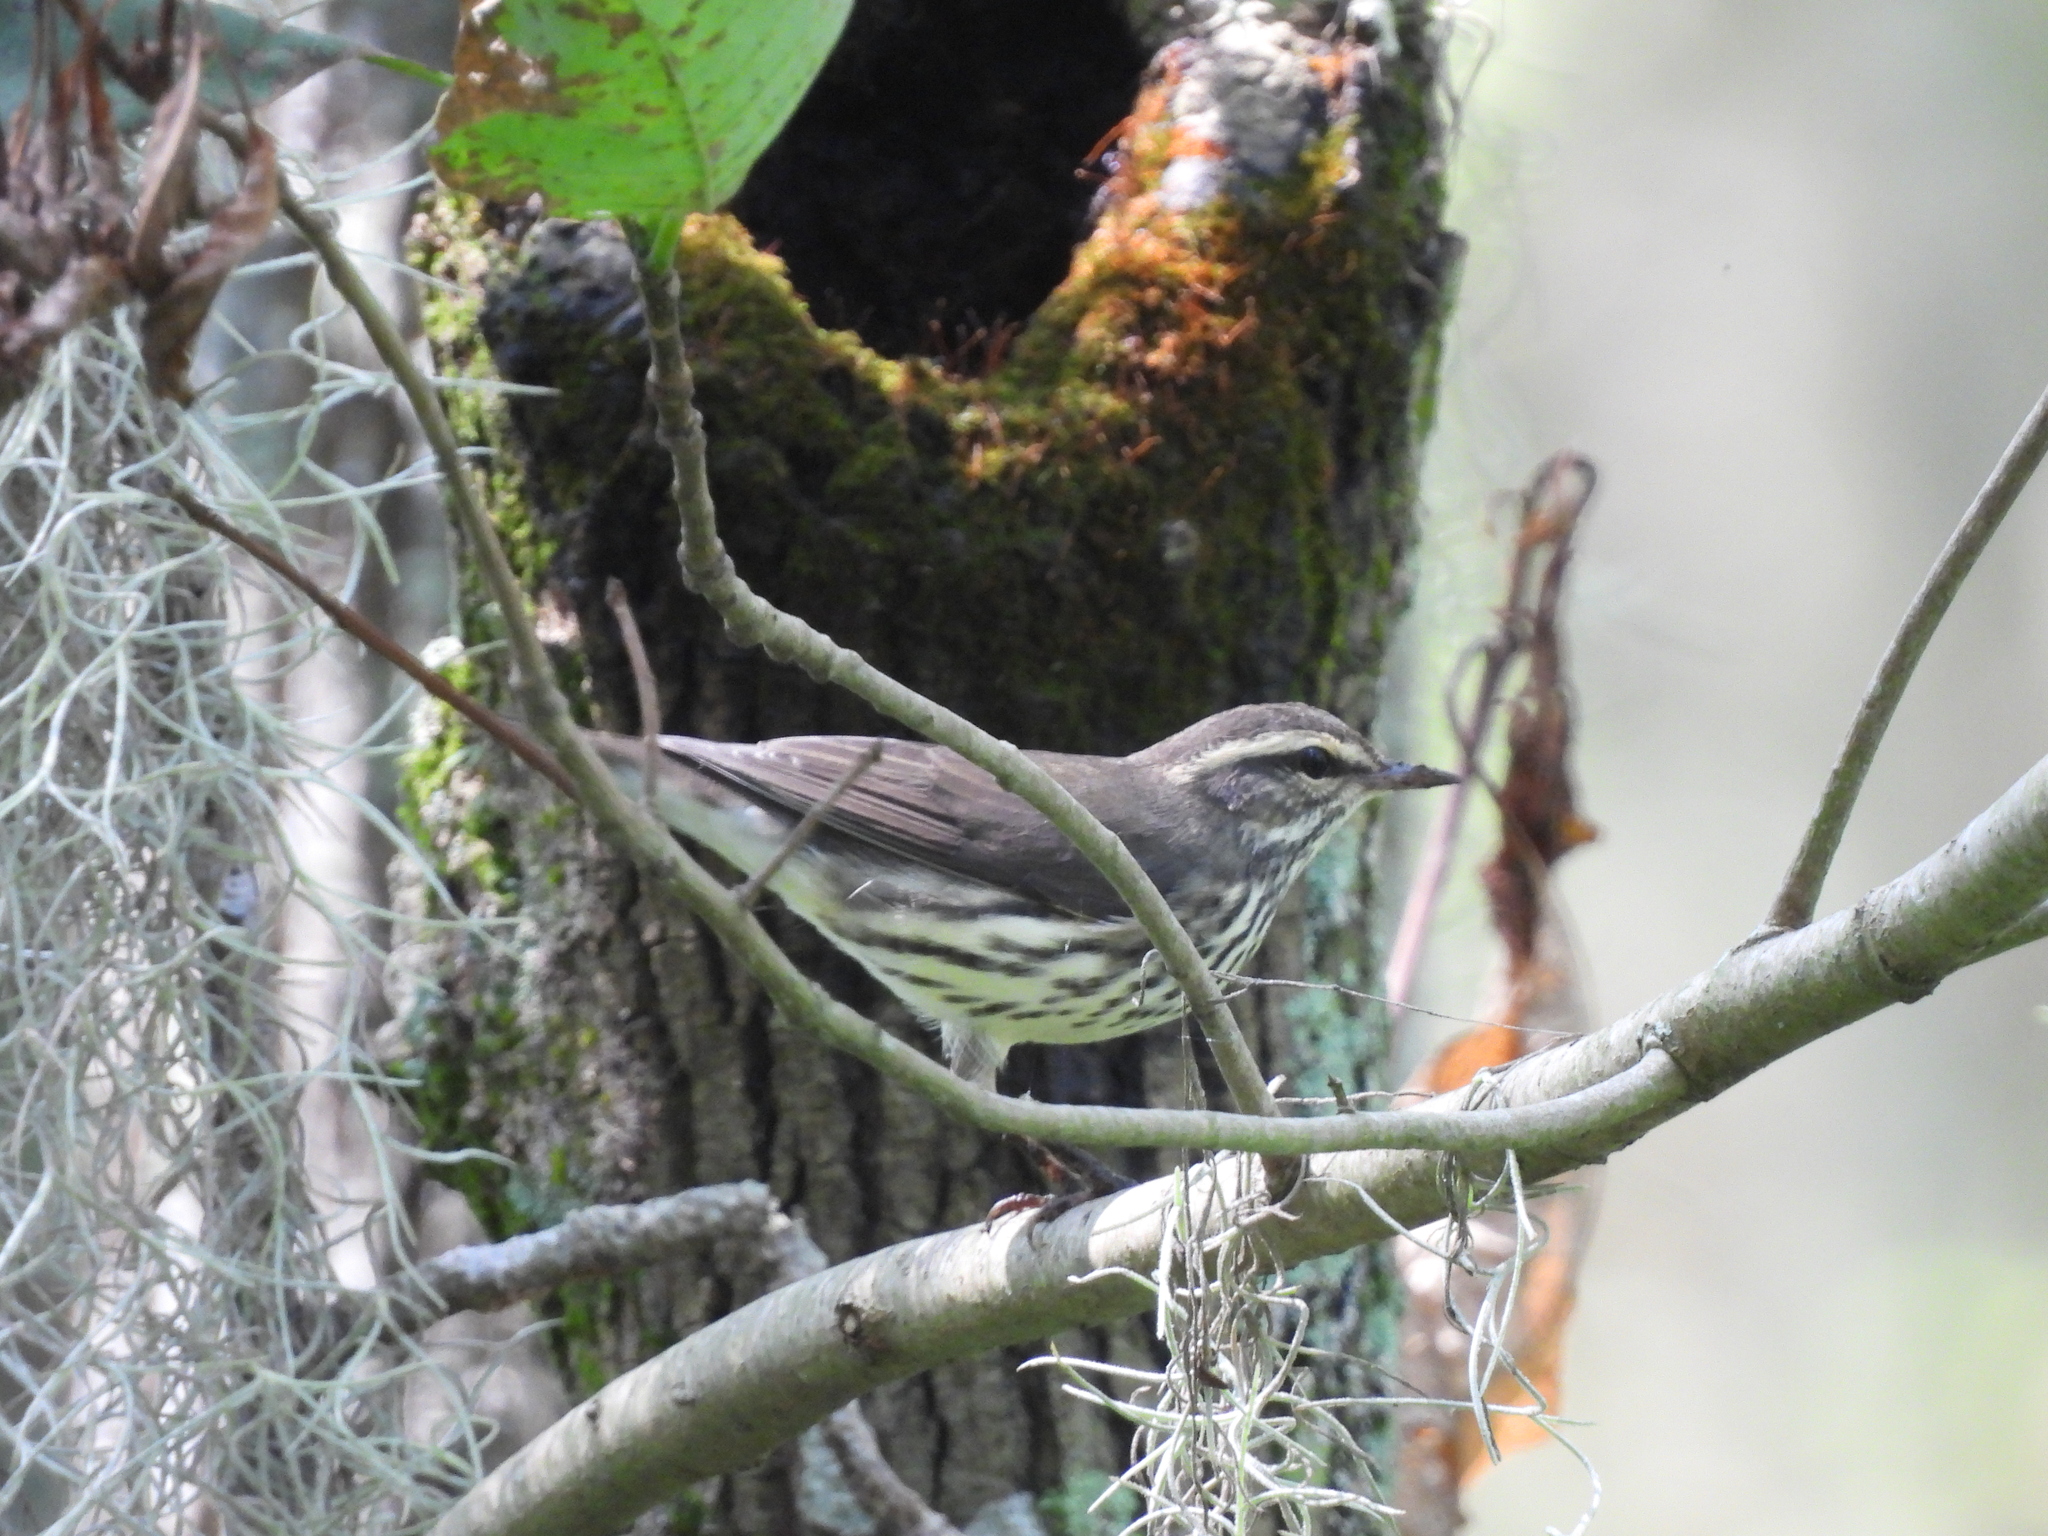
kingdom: Animalia
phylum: Chordata
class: Aves
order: Passeriformes
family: Parulidae
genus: Parkesia
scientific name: Parkesia noveboracensis
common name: Northern waterthrush
